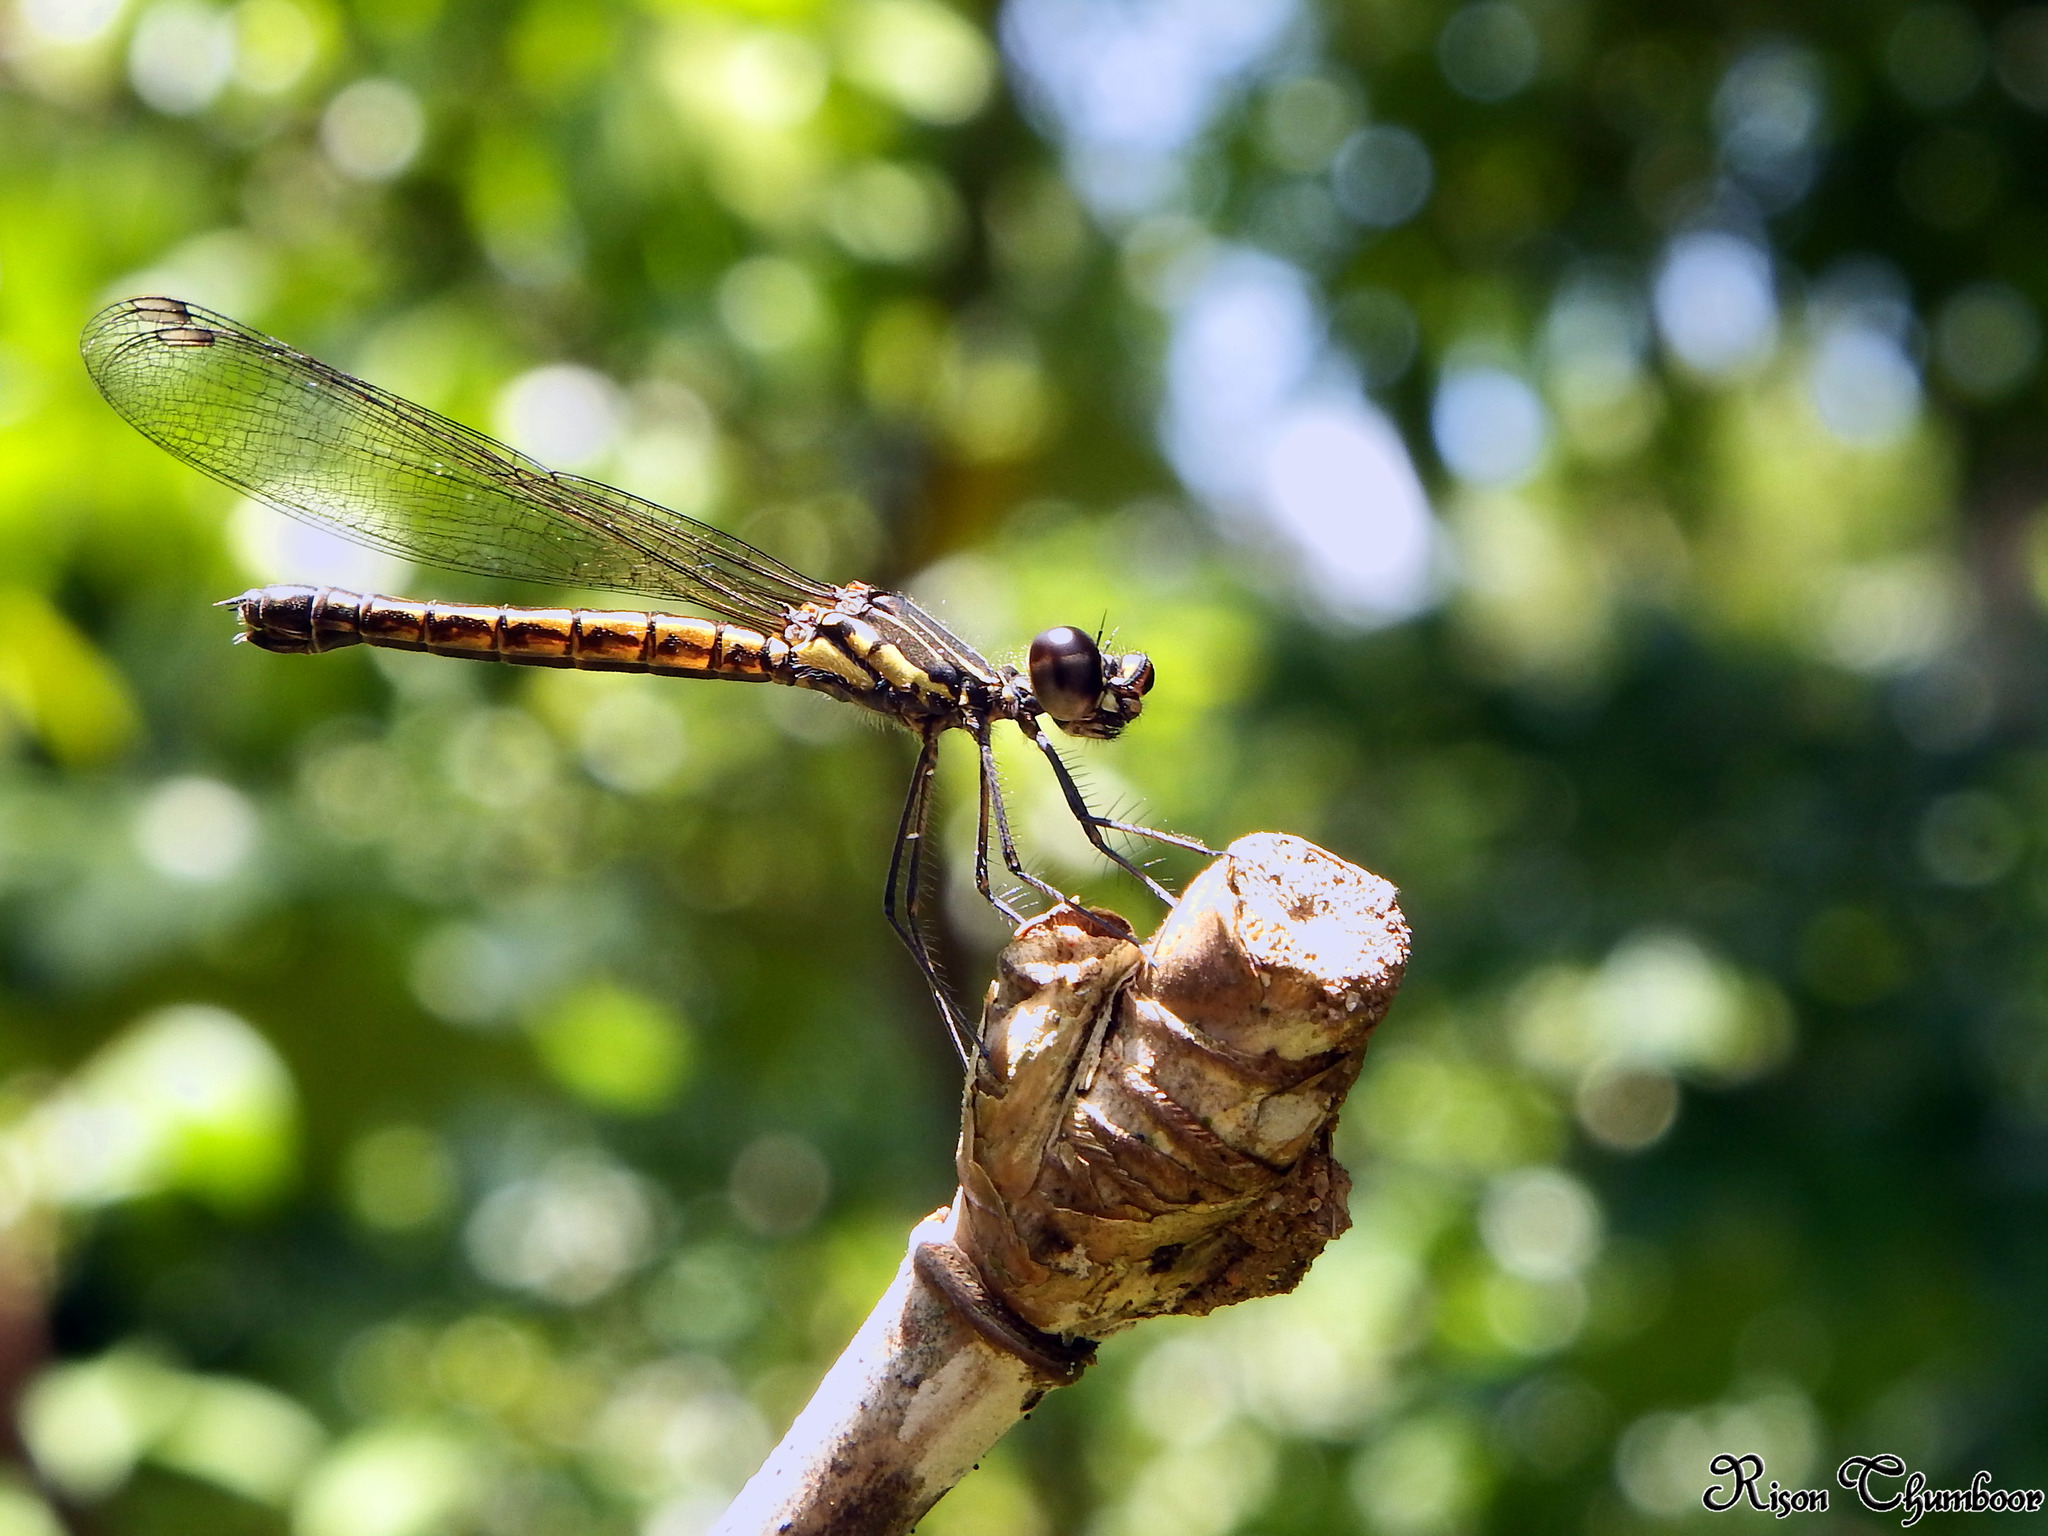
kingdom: Animalia
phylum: Arthropoda
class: Insecta
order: Odonata
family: Chlorocyphidae
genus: Libellago
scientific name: Libellago indica
